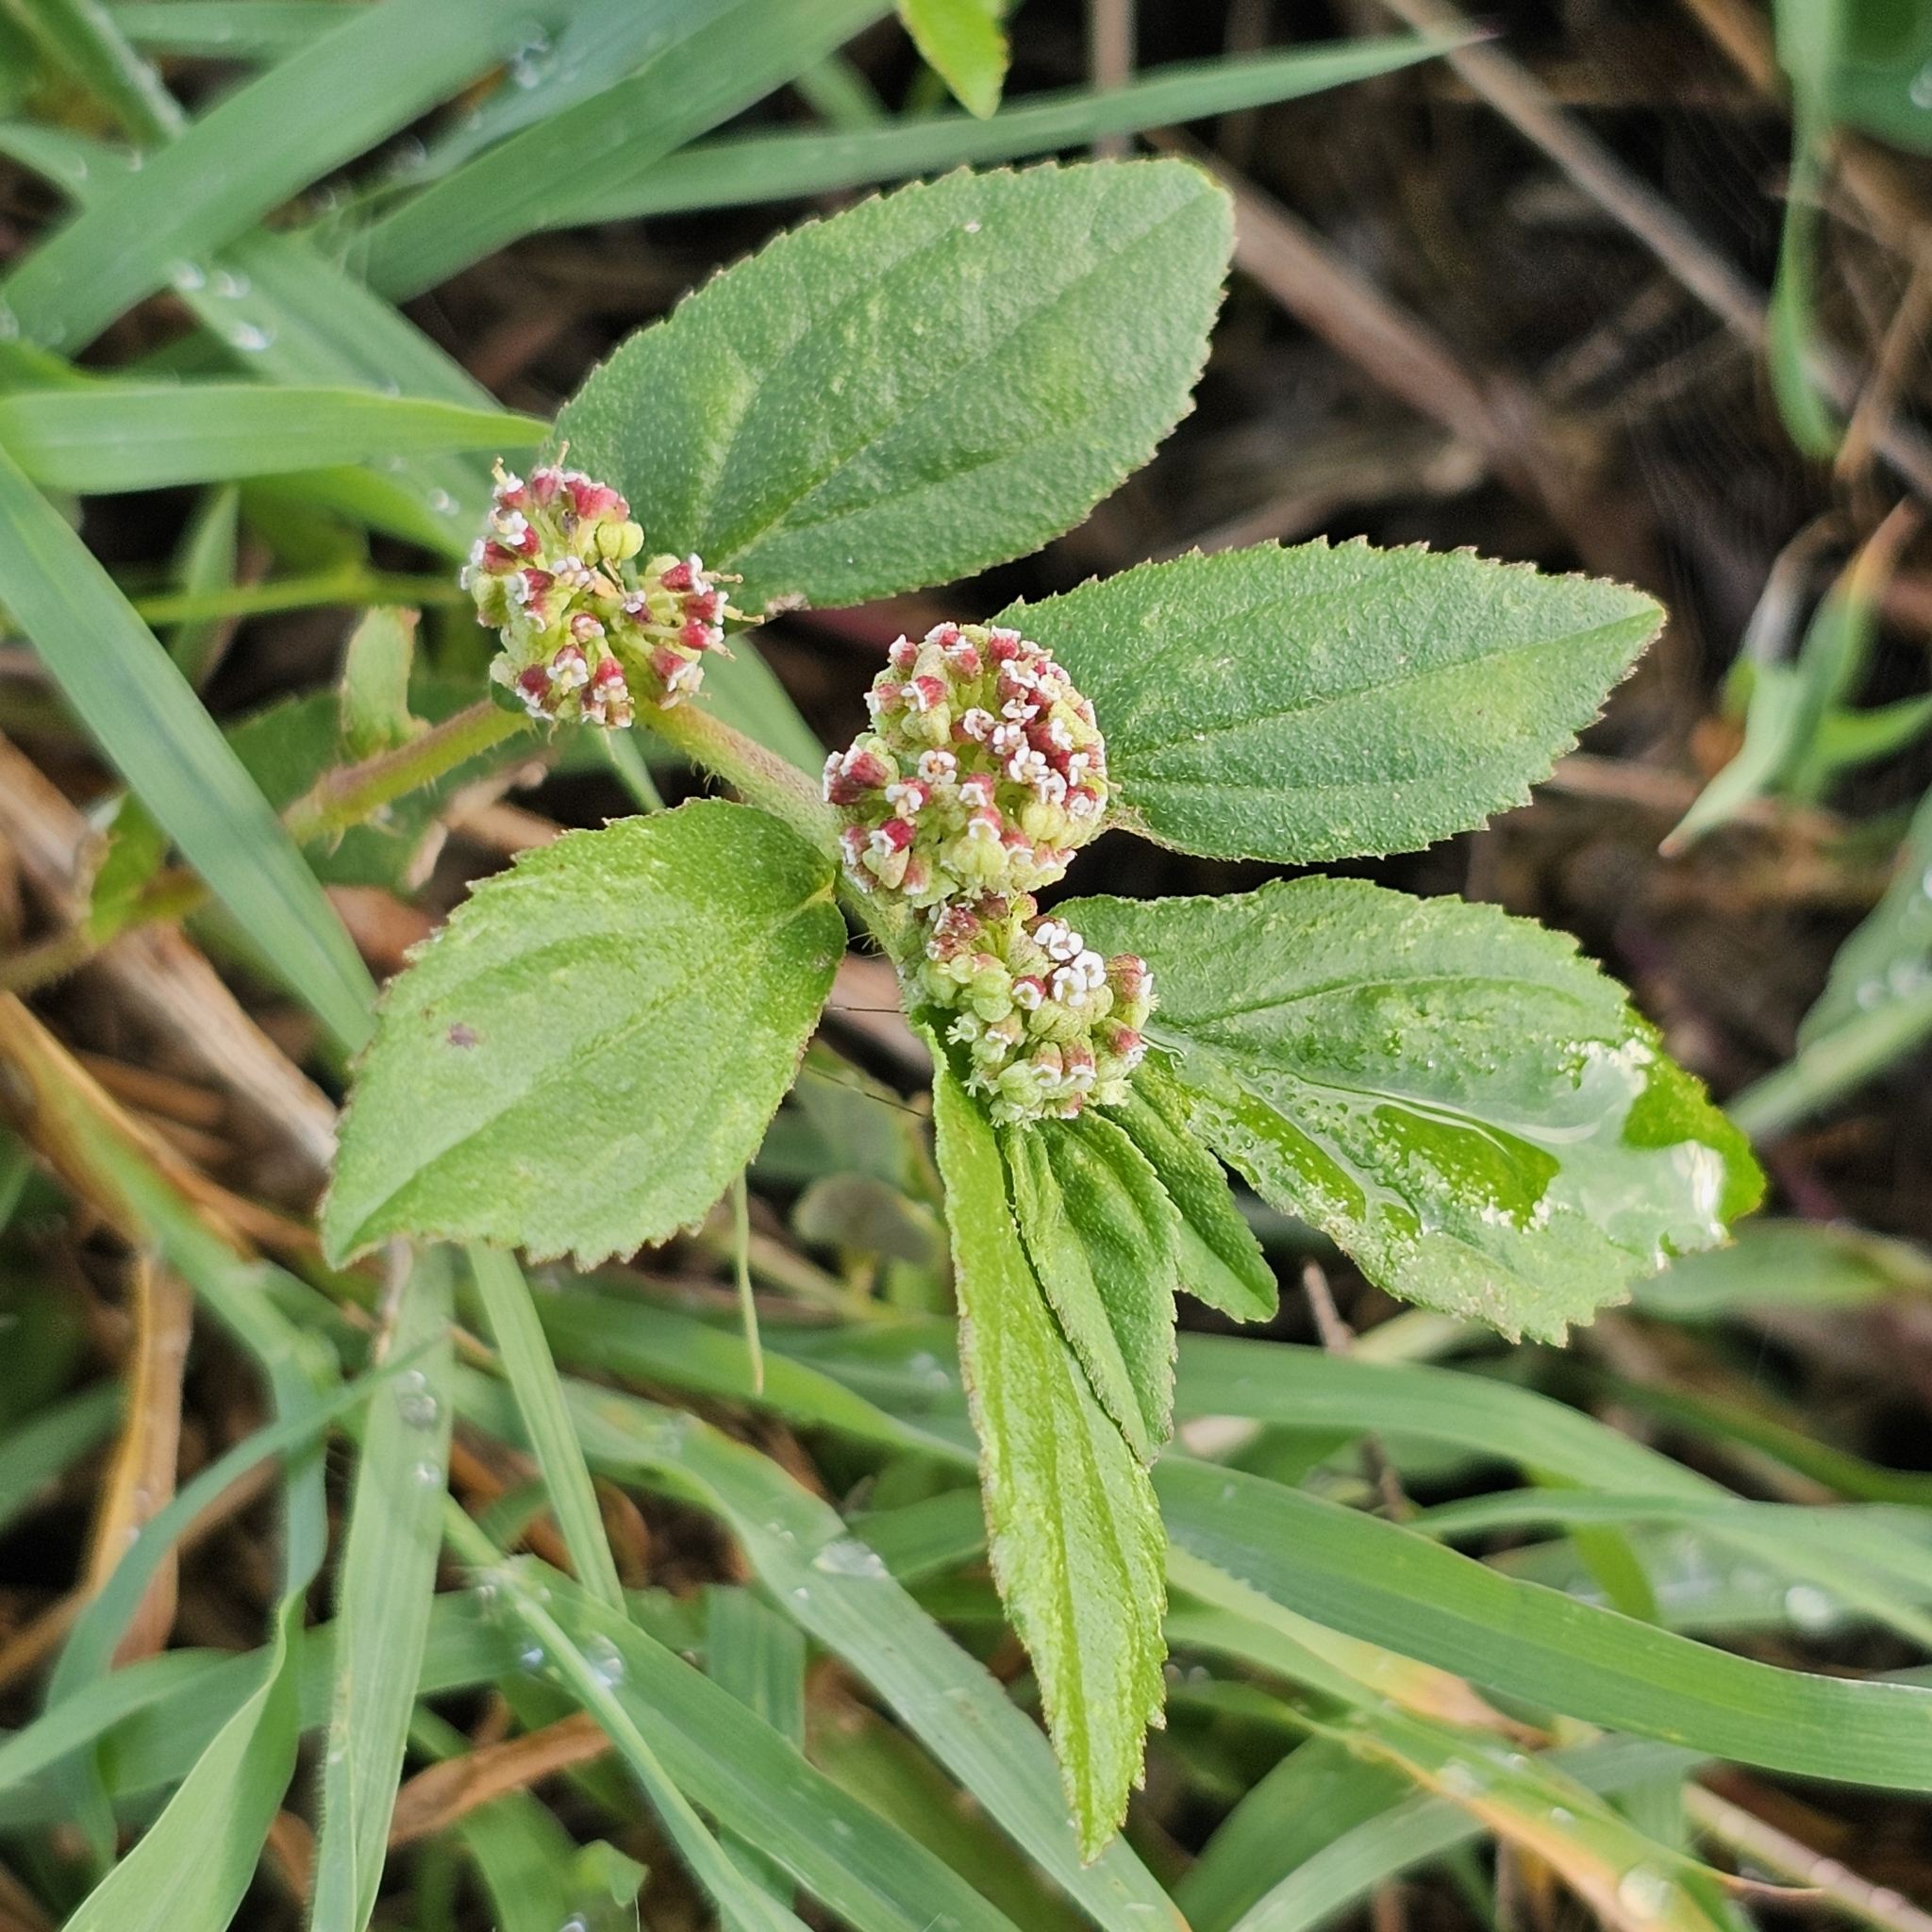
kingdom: Plantae
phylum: Tracheophyta
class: Magnoliopsida
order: Malpighiales
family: Euphorbiaceae
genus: Euphorbia
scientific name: Euphorbia hirta
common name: Pillpod sandmat
